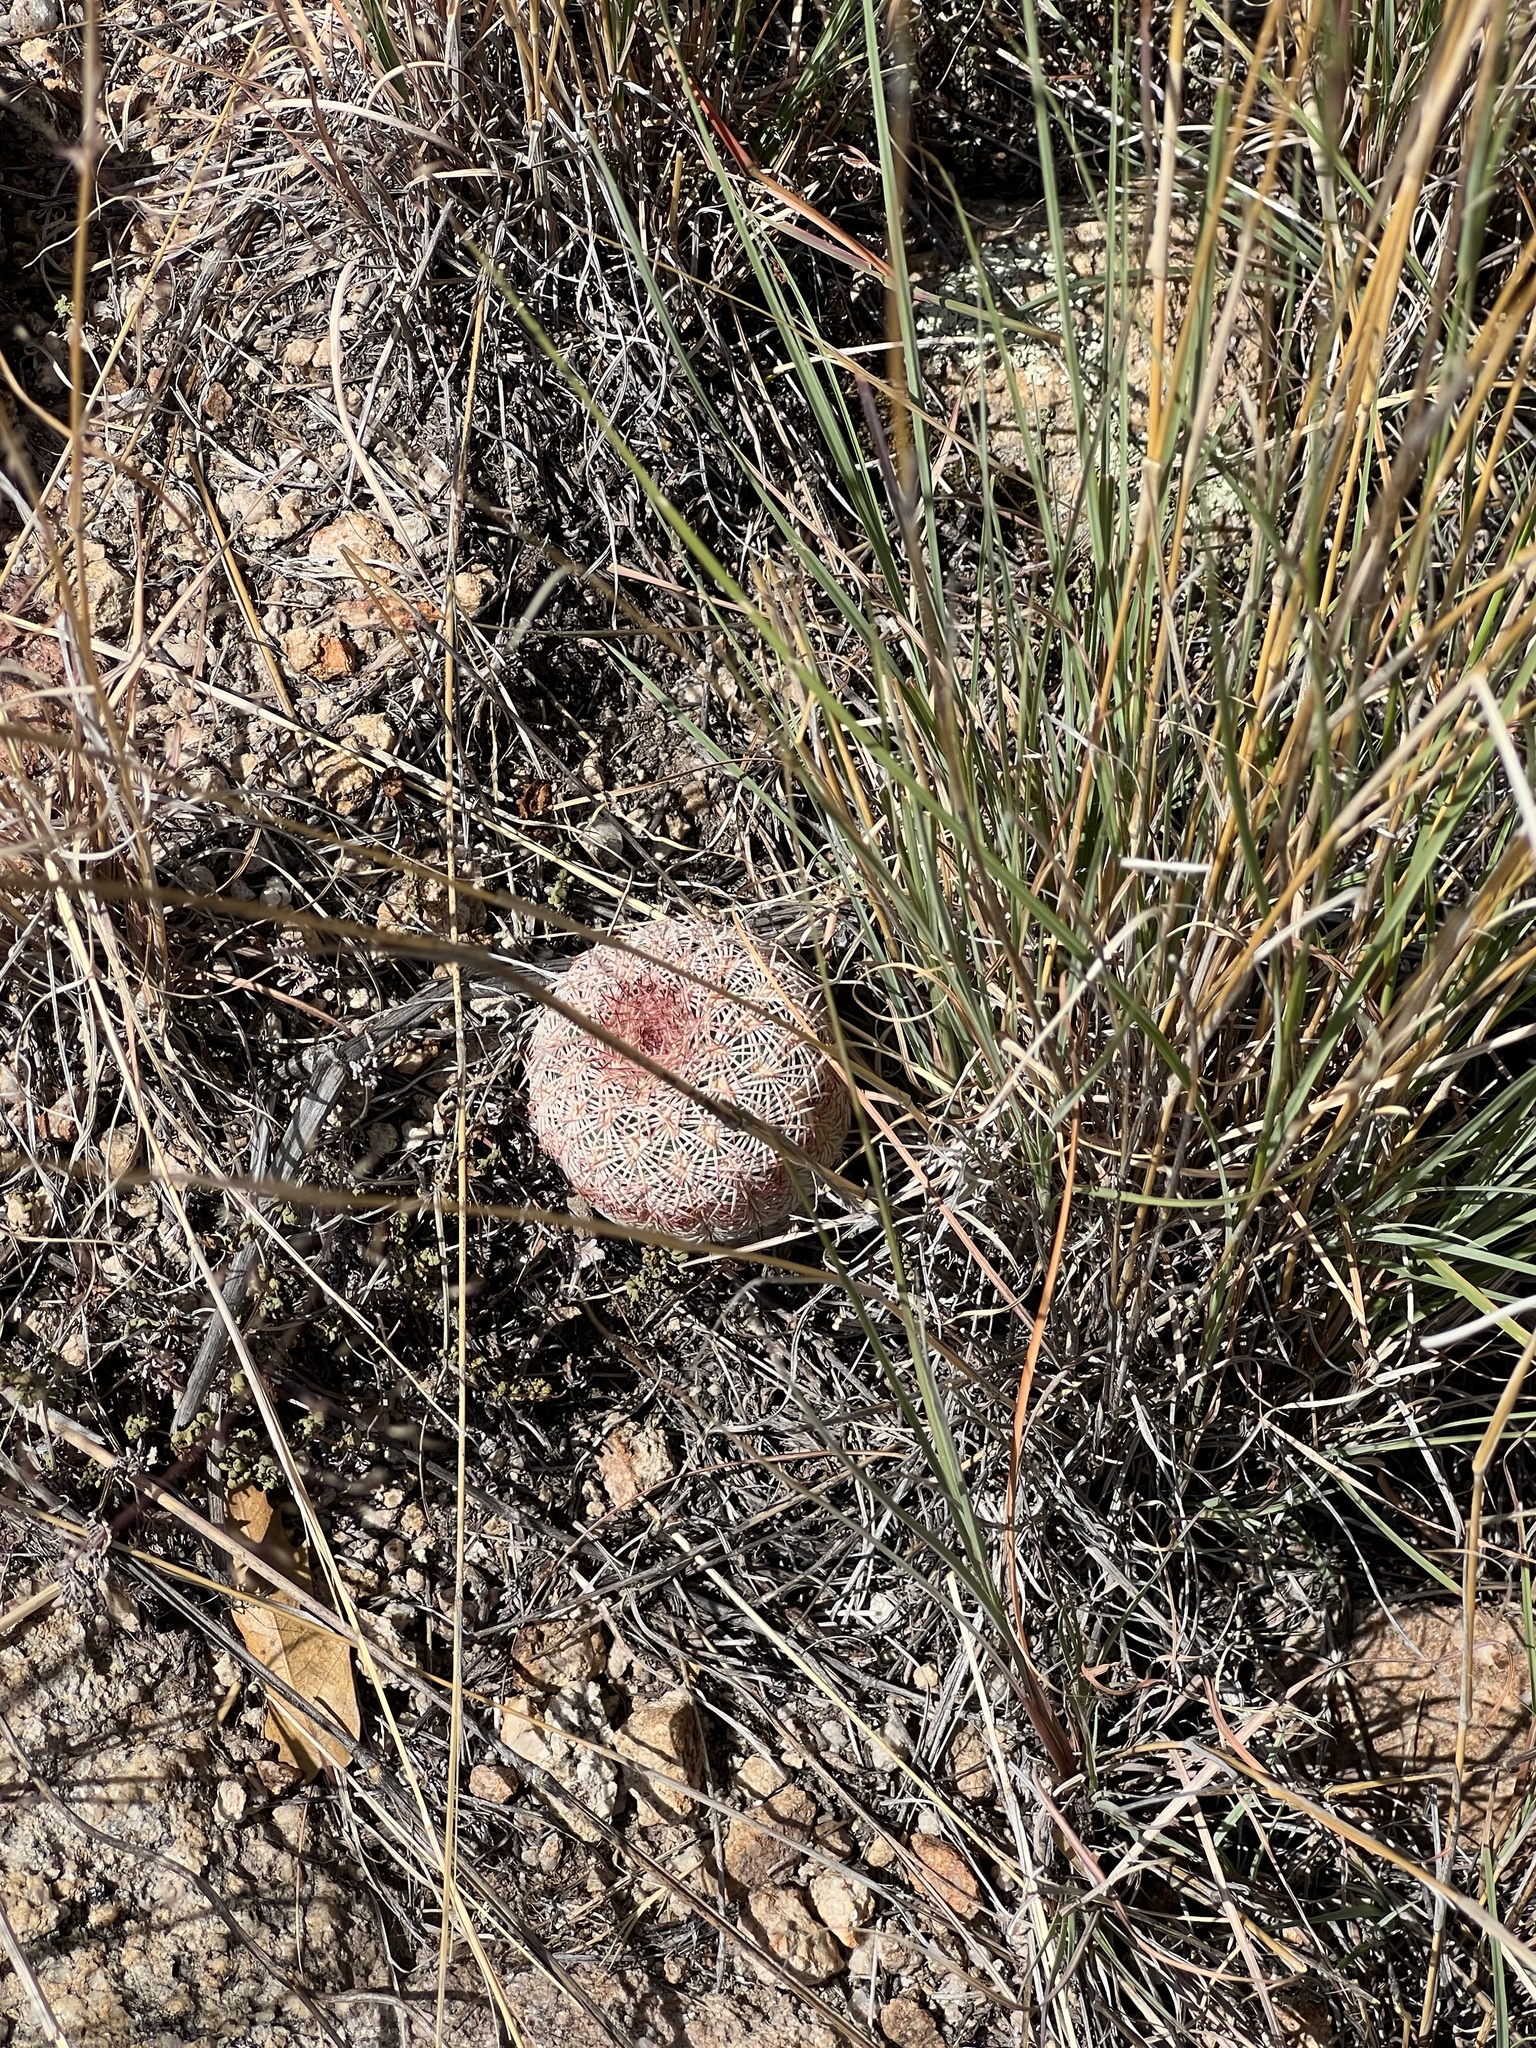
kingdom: Plantae
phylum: Tracheophyta
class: Magnoliopsida
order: Caryophyllales
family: Cactaceae
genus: Echinocereus
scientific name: Echinocereus rigidissimus
